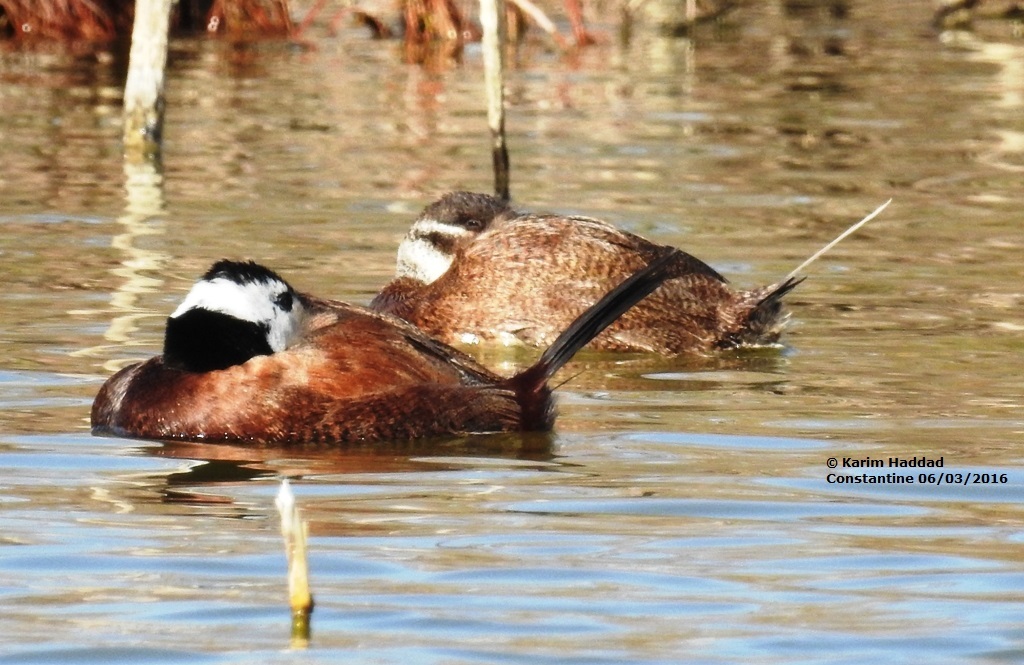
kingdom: Animalia
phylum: Chordata
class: Aves
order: Anseriformes
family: Anatidae
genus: Oxyura
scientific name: Oxyura leucocephala
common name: White-headed duck
